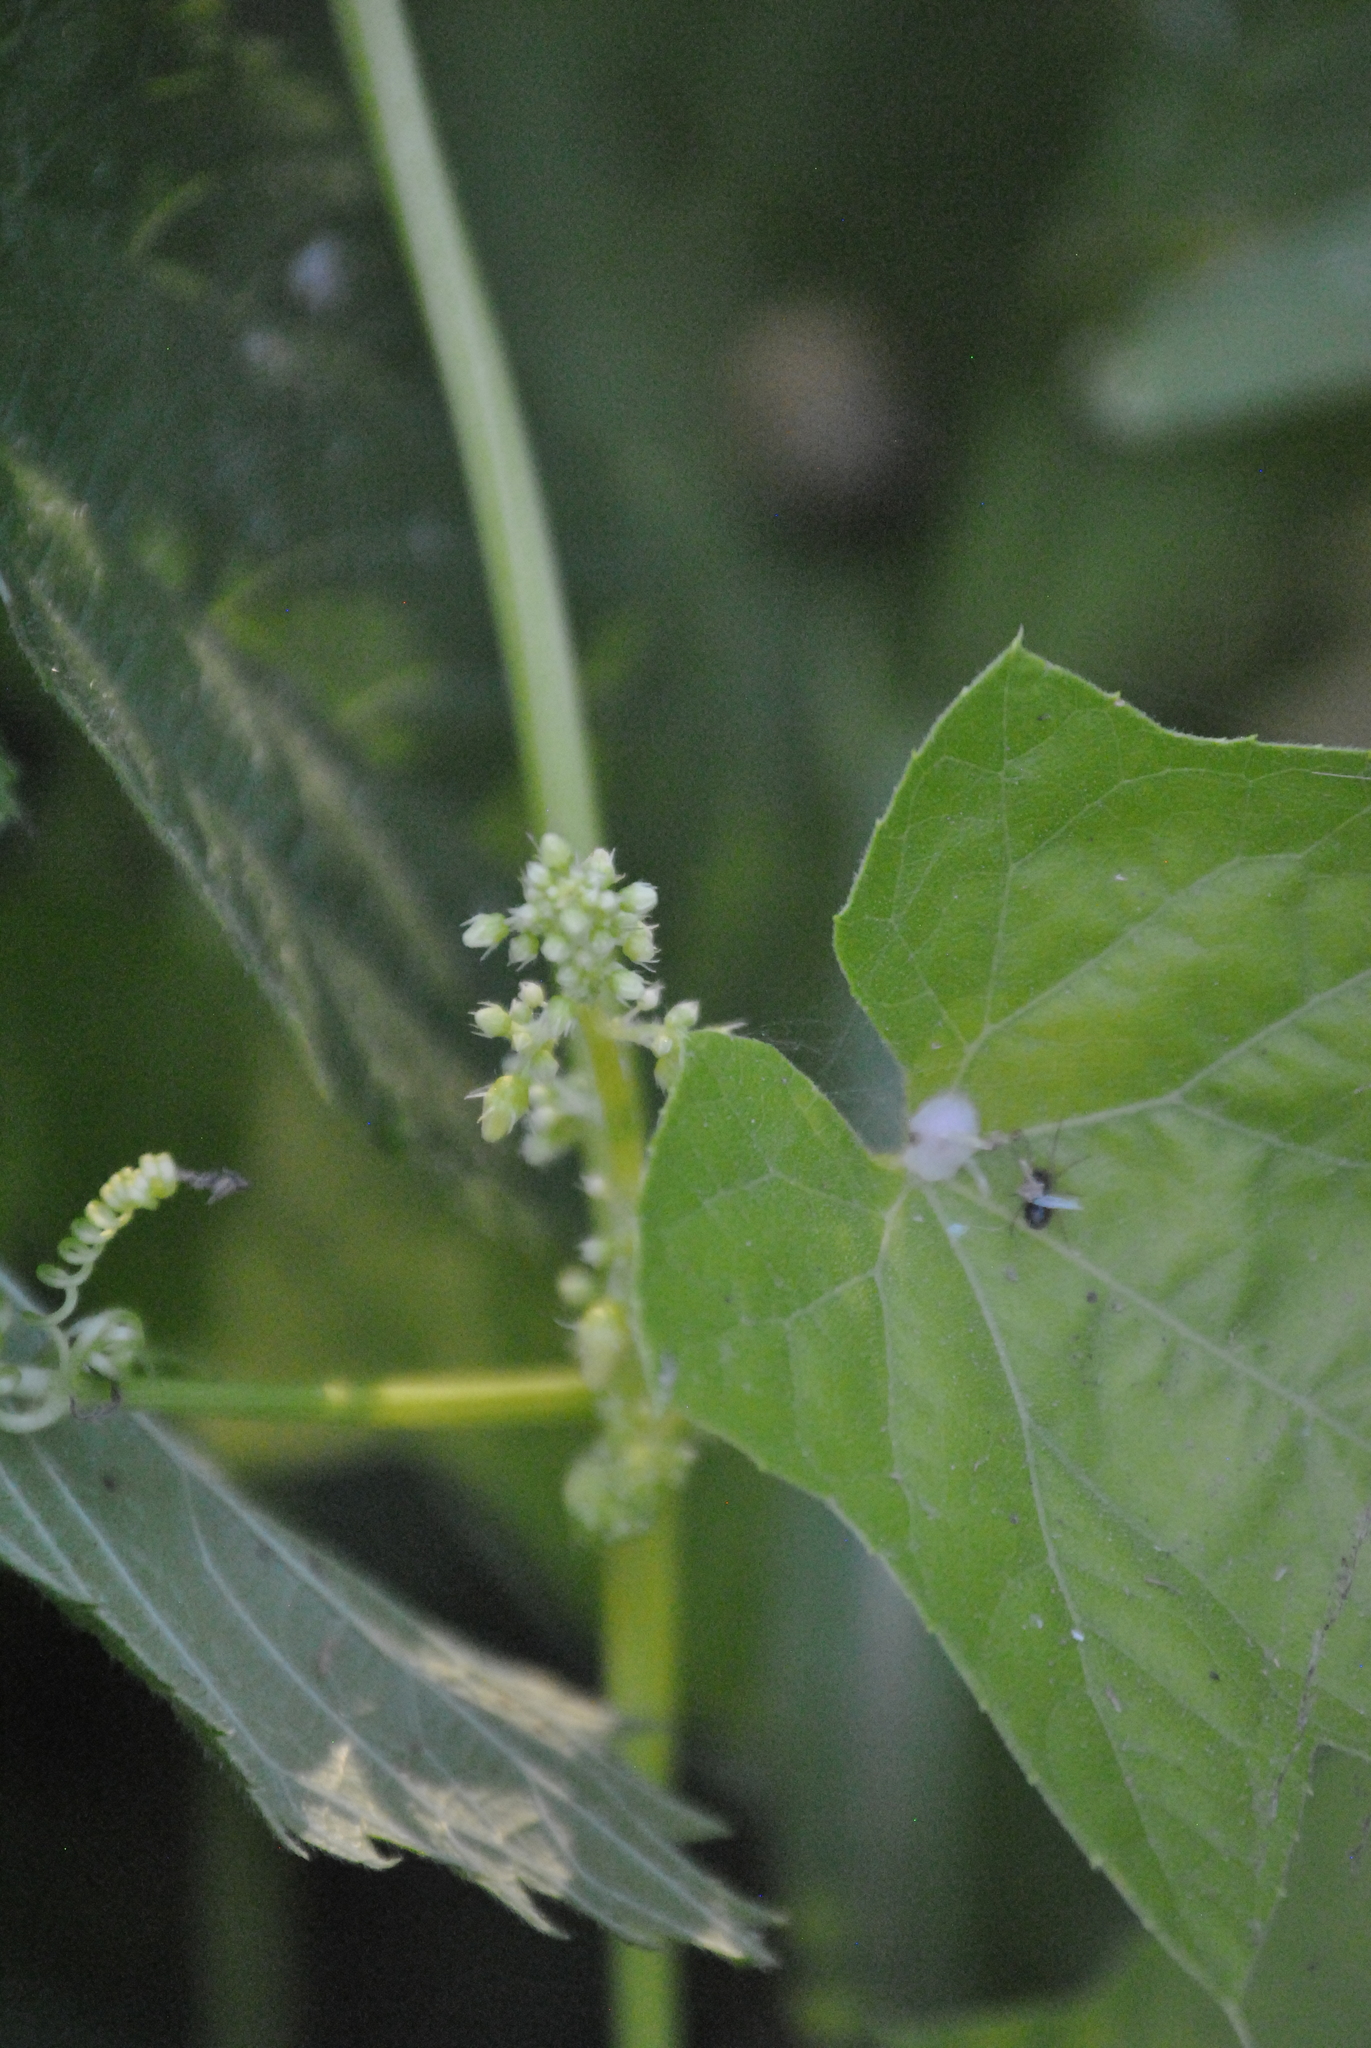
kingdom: Plantae
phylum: Tracheophyta
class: Magnoliopsida
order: Cucurbitales
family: Cucurbitaceae
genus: Echinocystis
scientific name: Echinocystis lobata
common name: Wild cucumber
